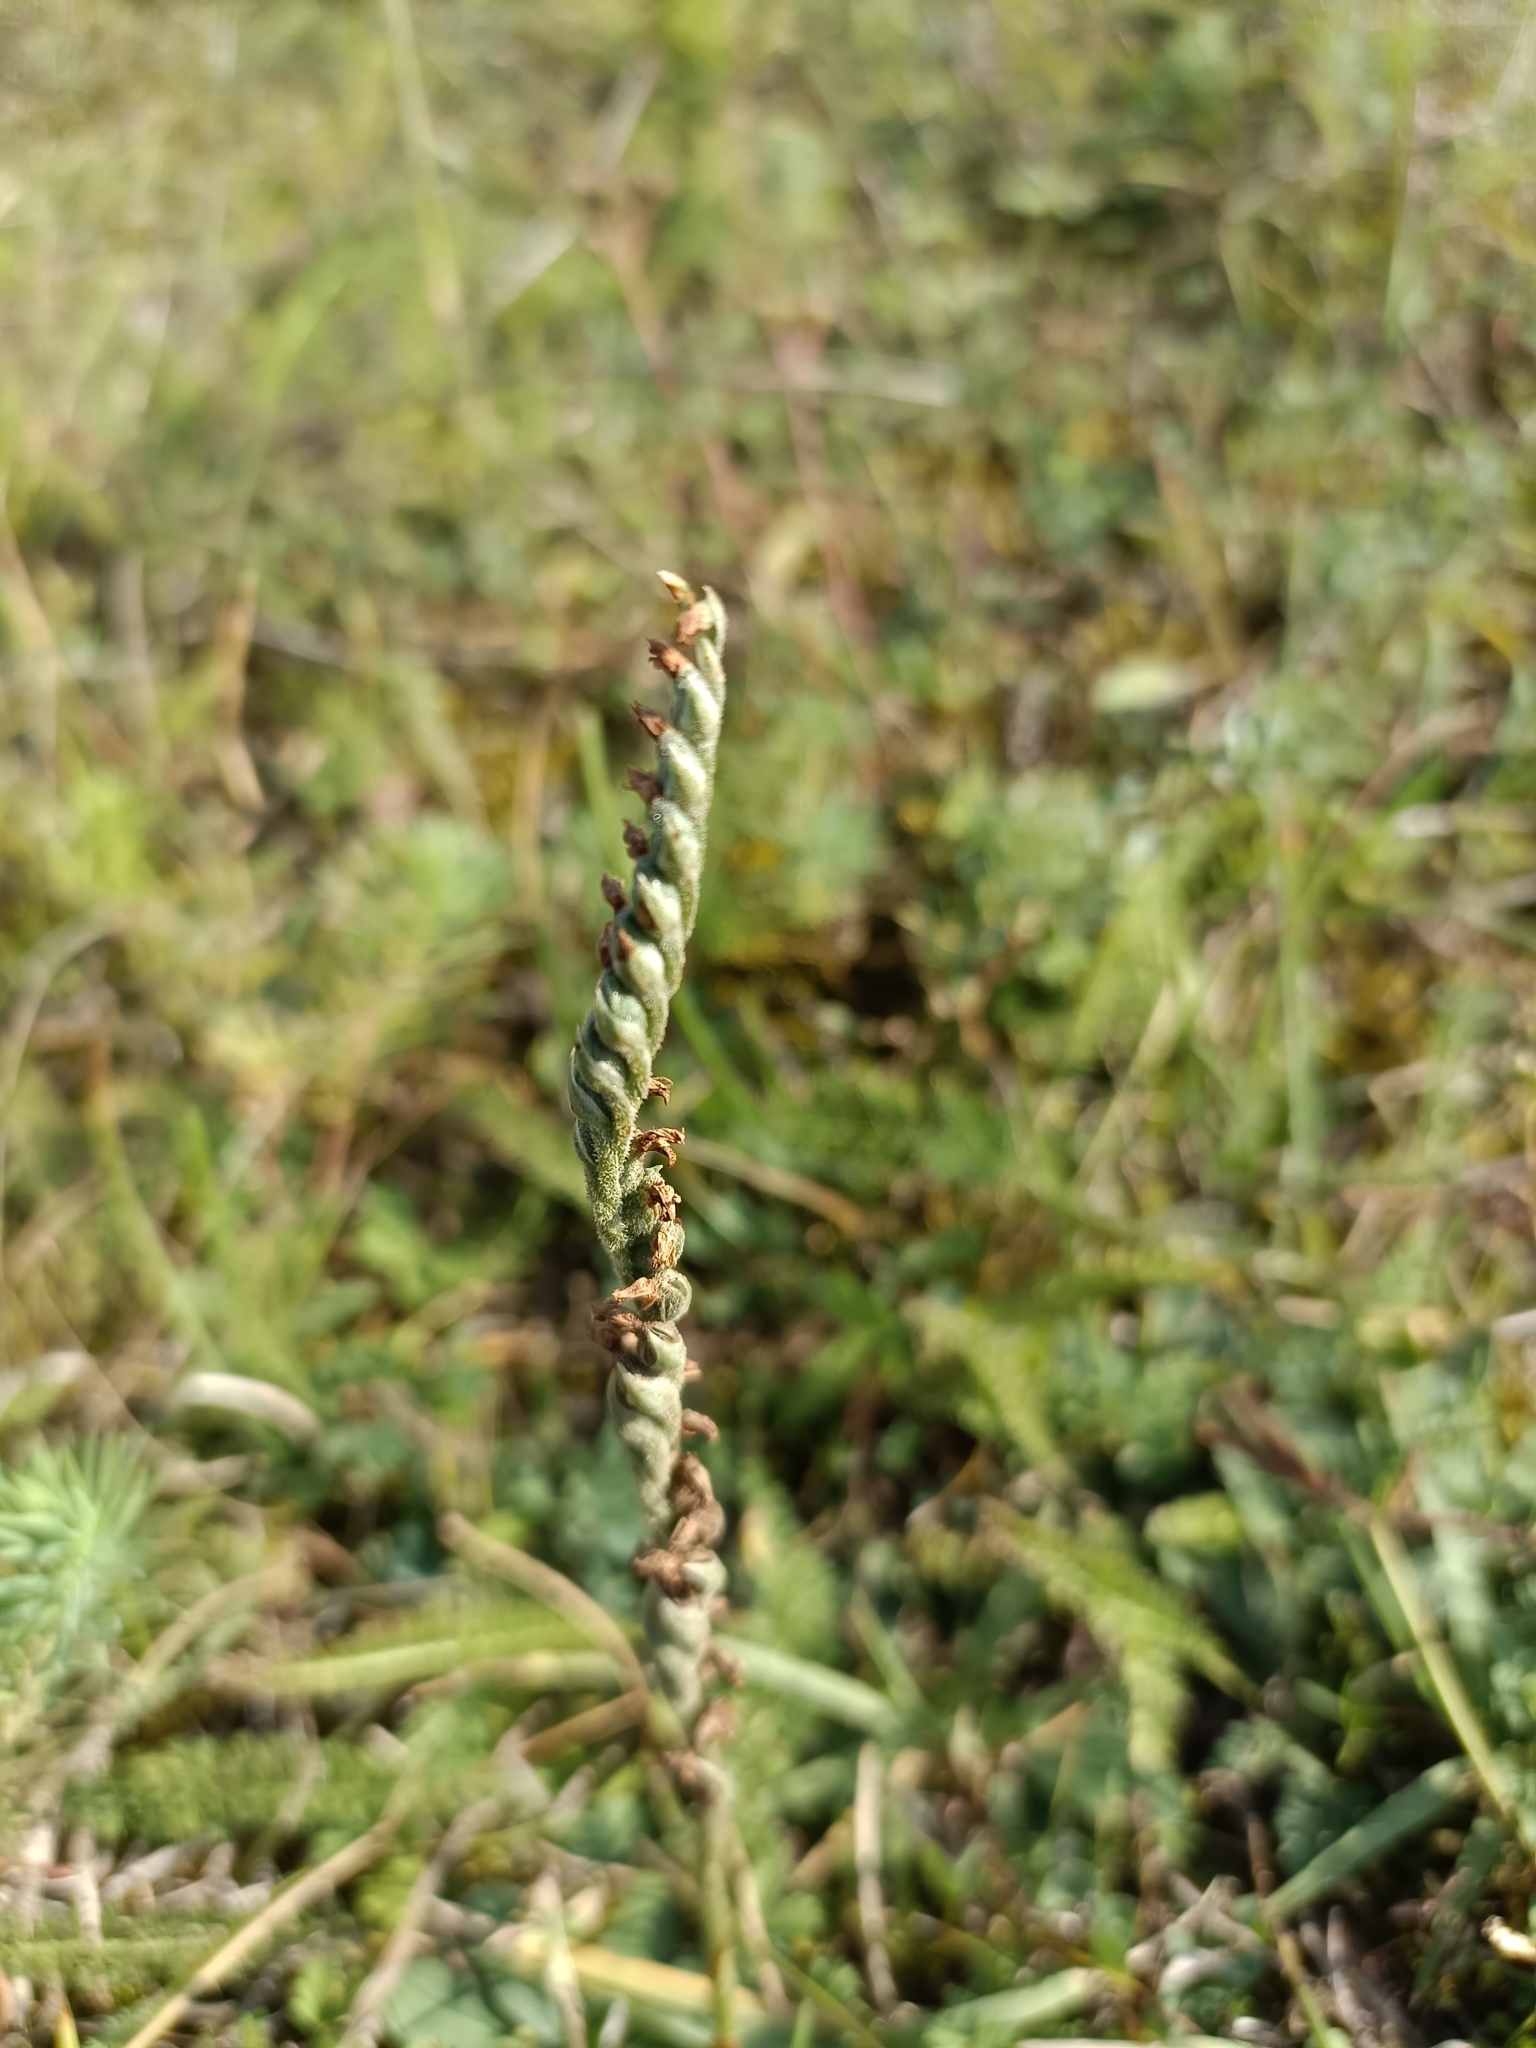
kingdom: Plantae
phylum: Tracheophyta
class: Liliopsida
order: Asparagales
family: Orchidaceae
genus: Spiranthes
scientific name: Spiranthes spiralis
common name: Autumn lady's-tresses
